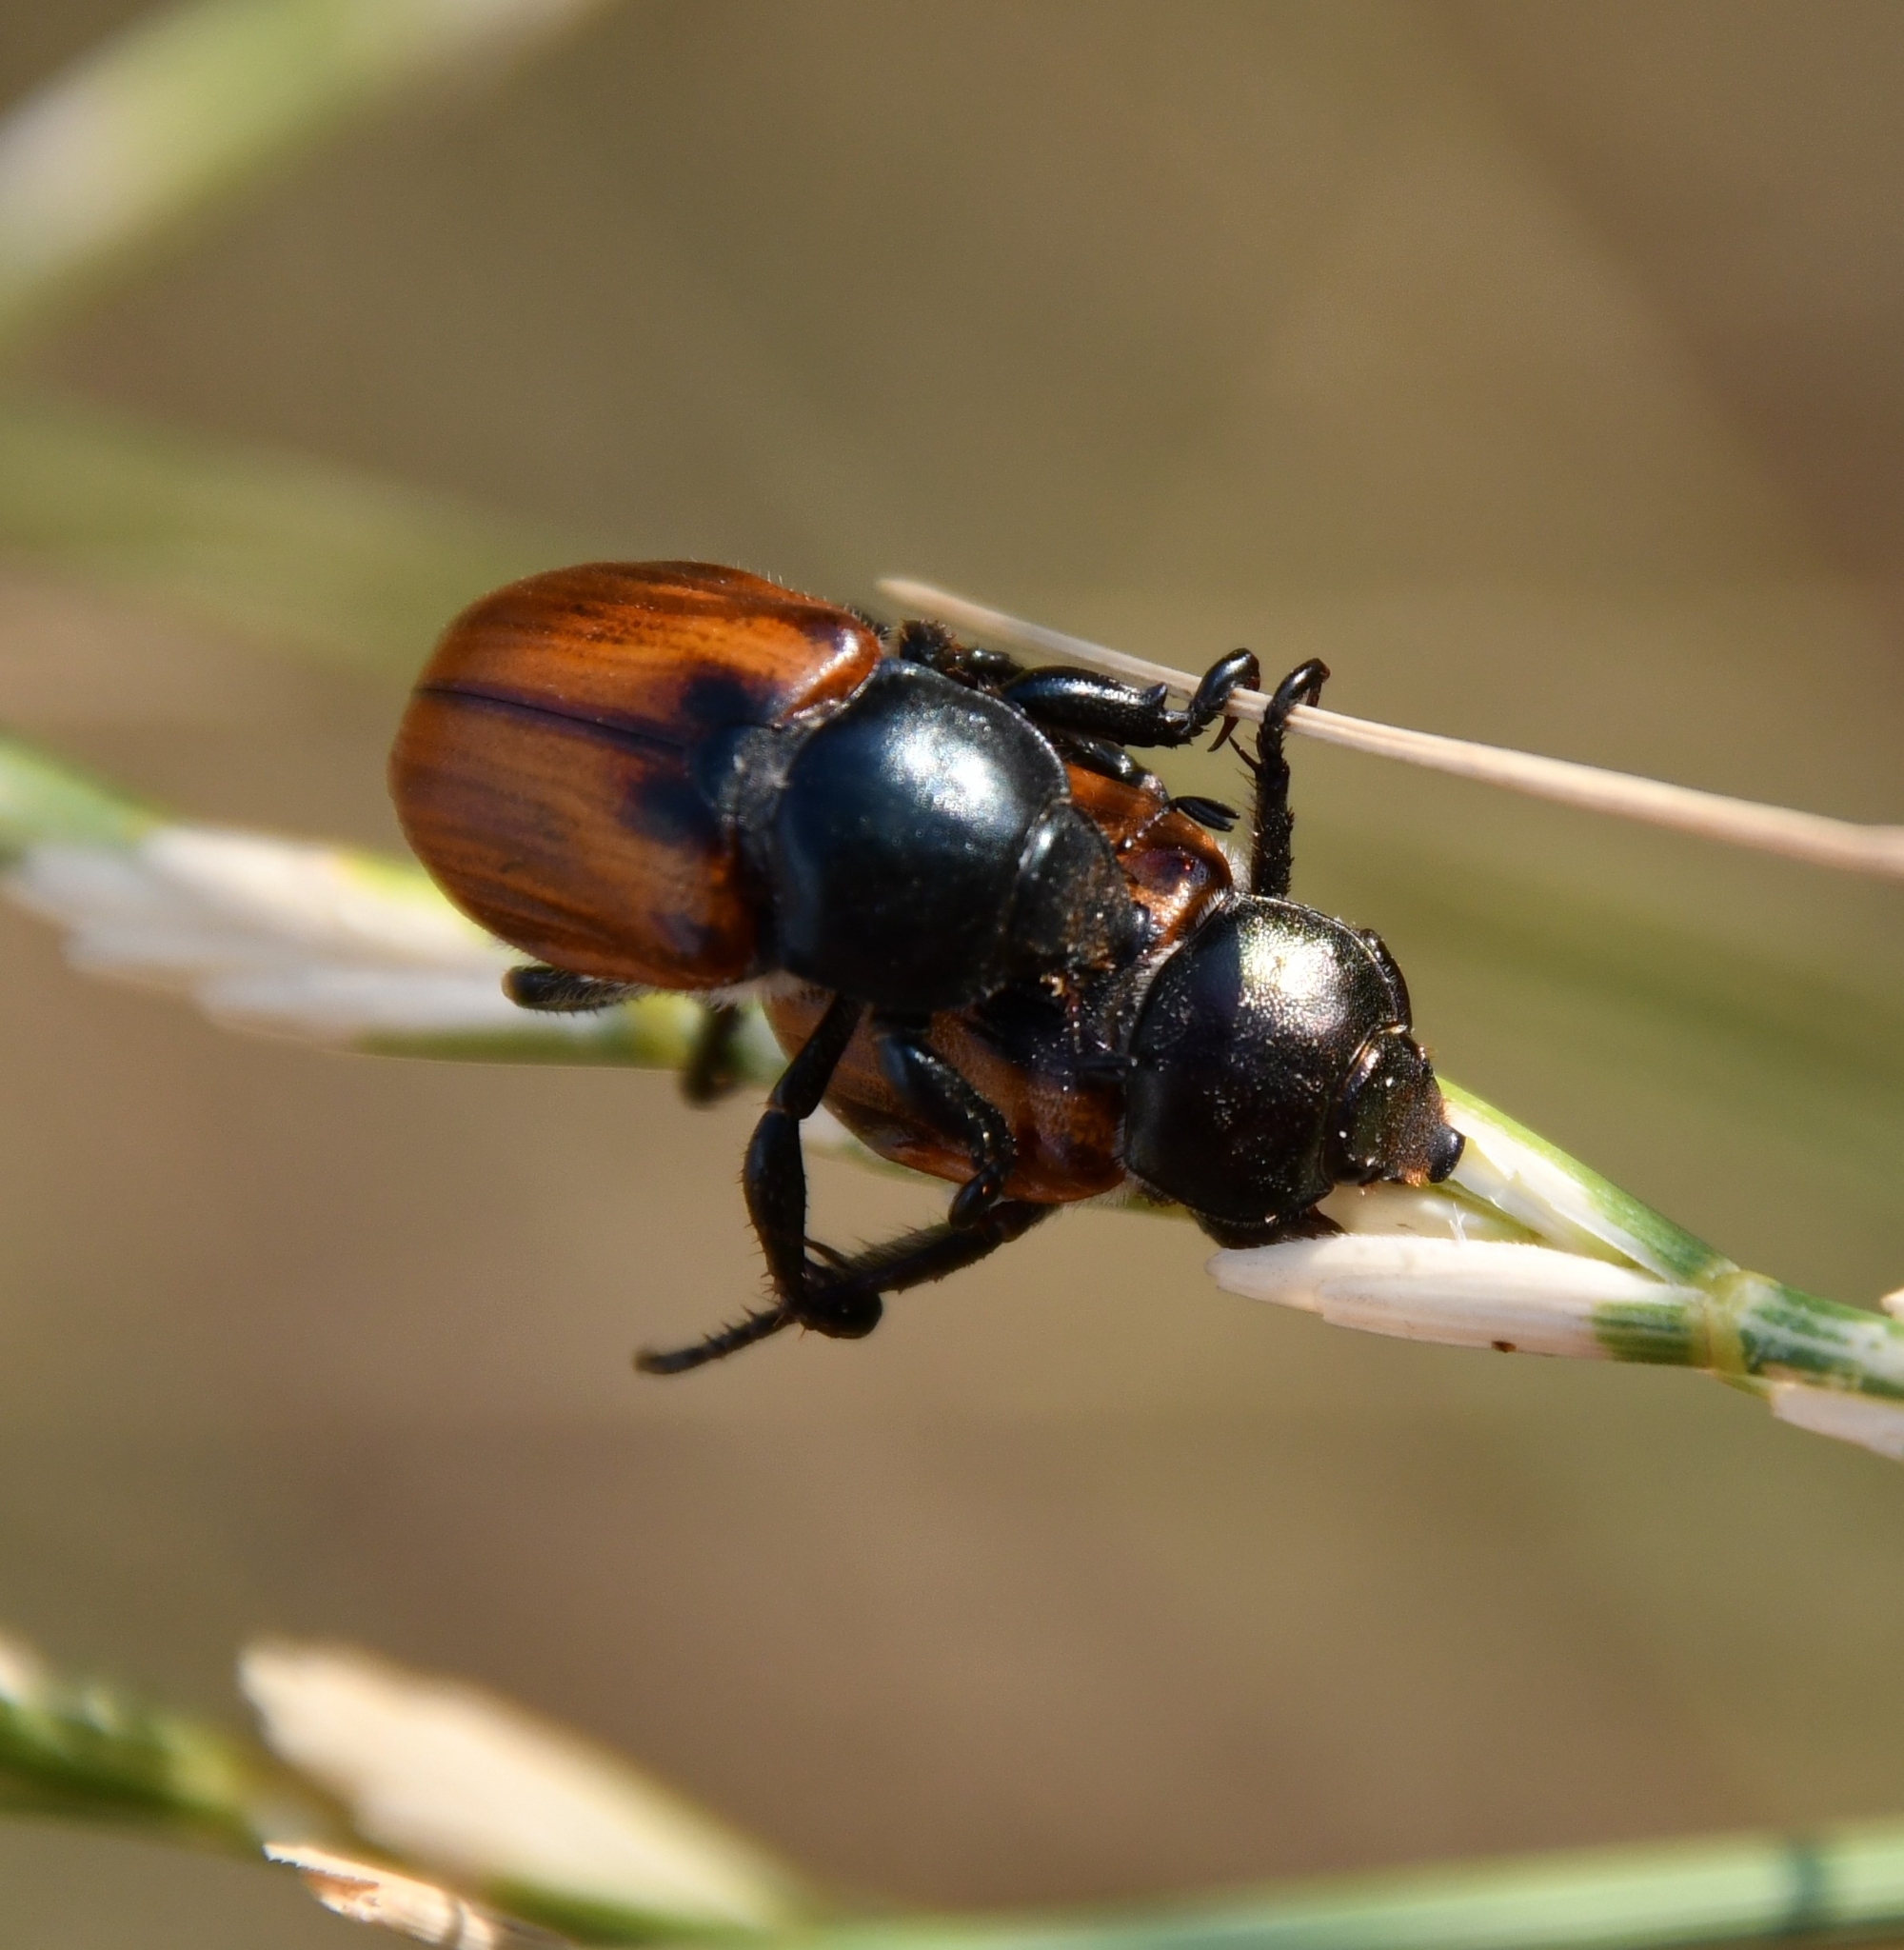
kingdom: Animalia
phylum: Arthropoda
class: Insecta
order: Coleoptera
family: Scarabaeidae
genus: Anisoplia
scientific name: Anisoplia austriaca
